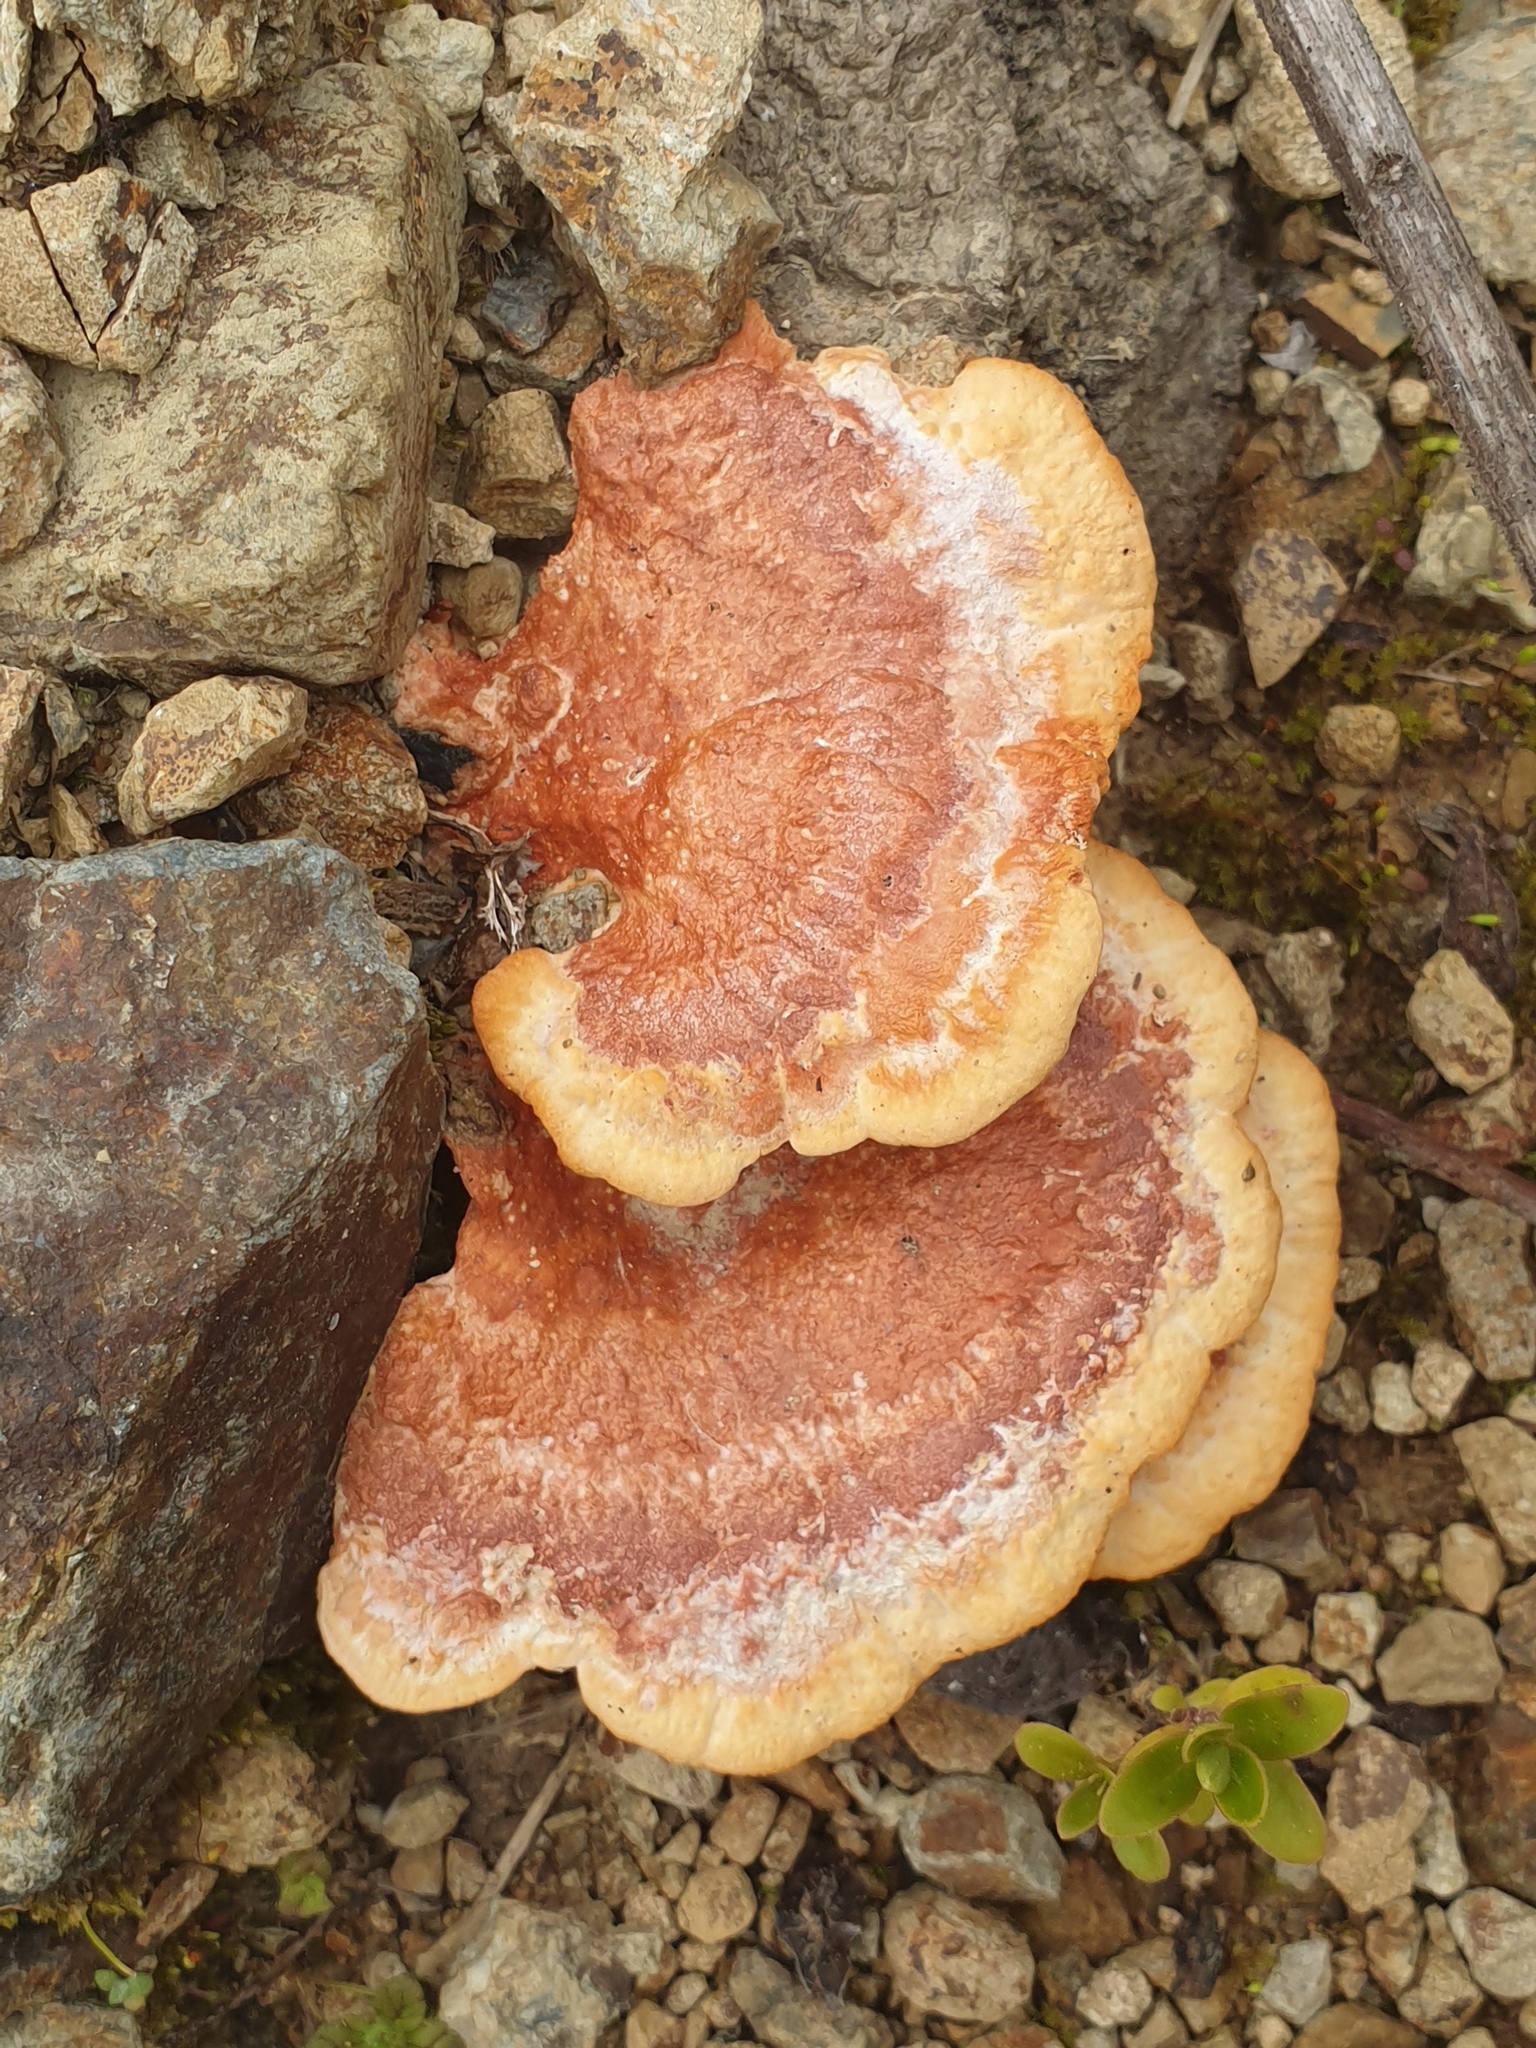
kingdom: Fungi
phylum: Basidiomycota
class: Agaricomycetes
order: Polyporales
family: Polyporaceae
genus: Trametes
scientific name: Trametes coccinea
